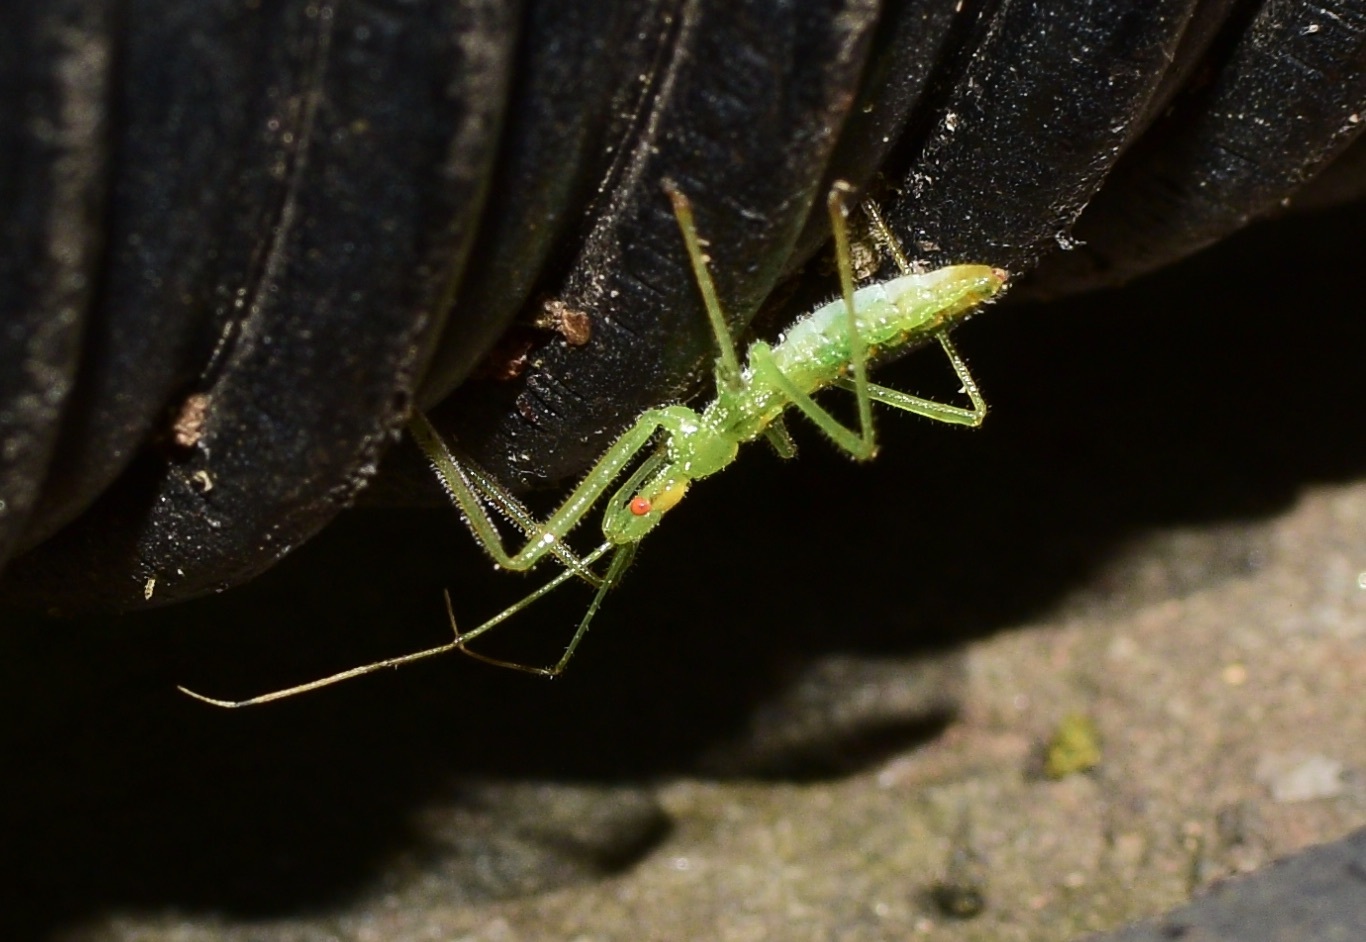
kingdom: Animalia
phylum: Arthropoda
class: Insecta
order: Hemiptera
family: Reduviidae
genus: Zelus
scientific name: Zelus luridus
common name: Pale green assassin bug
